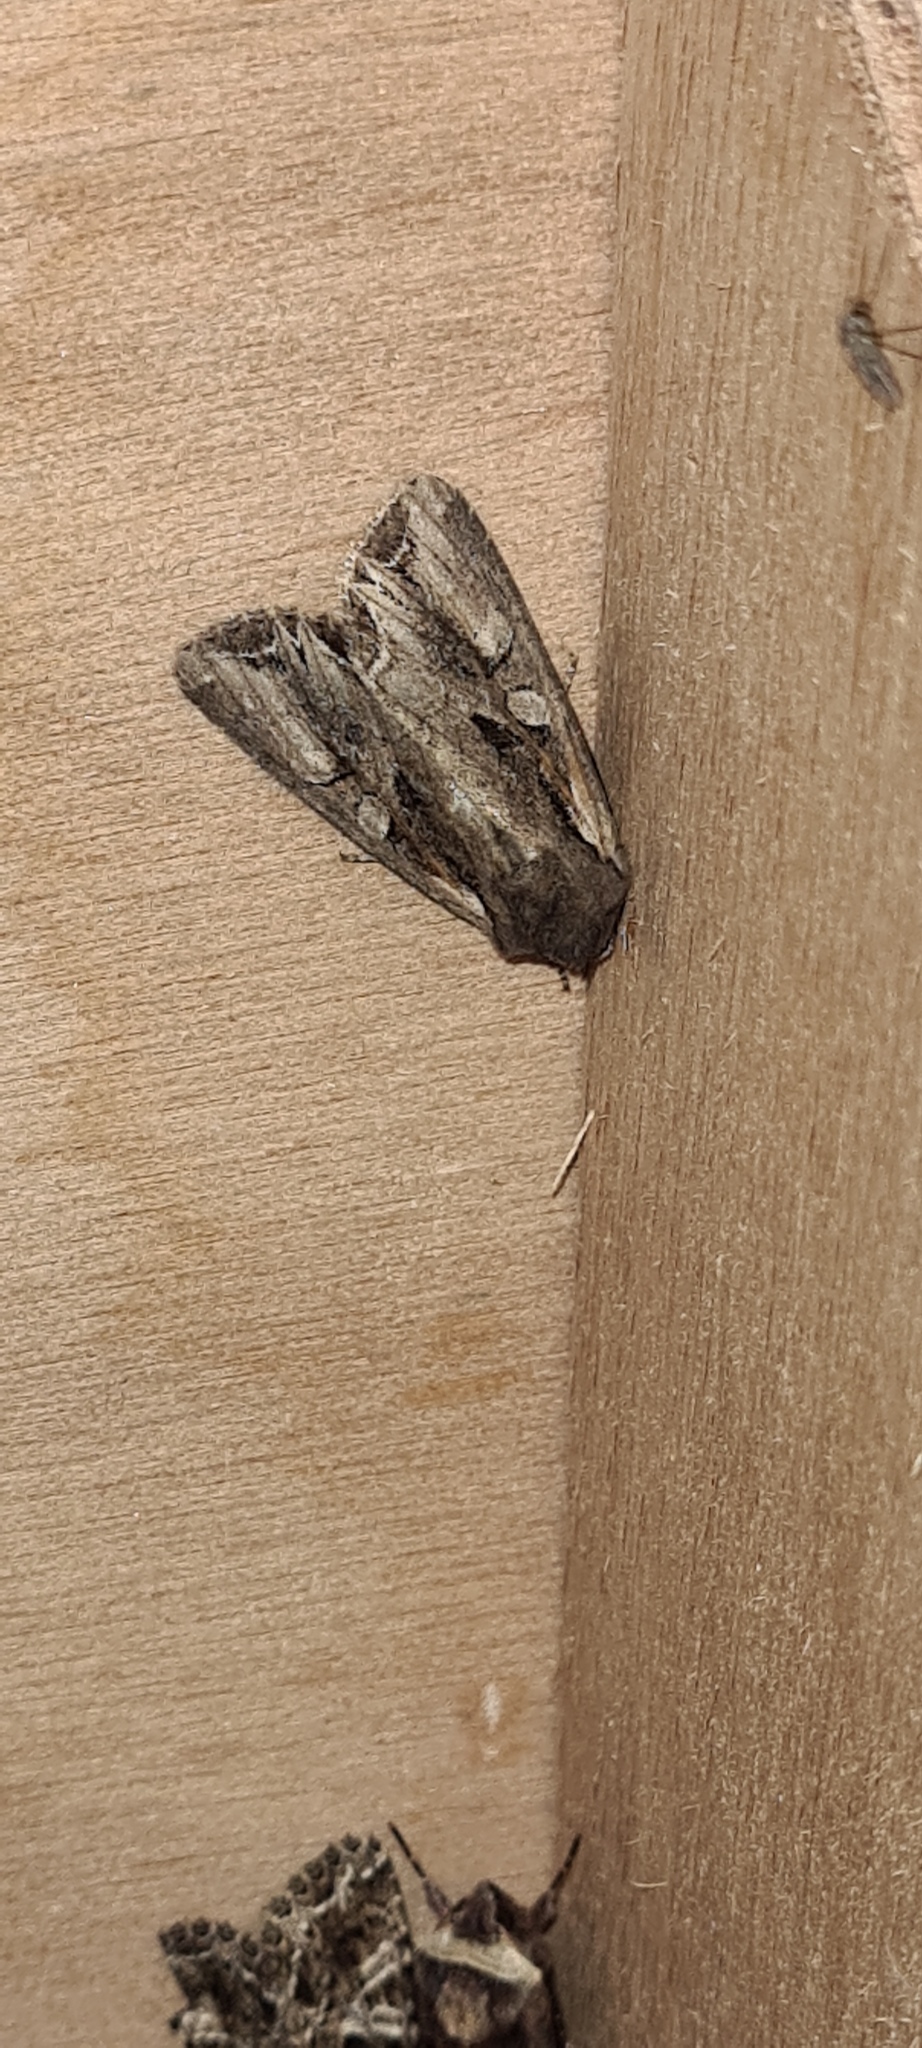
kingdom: Animalia
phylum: Arthropoda
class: Insecta
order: Lepidoptera
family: Noctuidae
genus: Lacanobia
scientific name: Lacanobia suasa
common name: Dog's tooth
